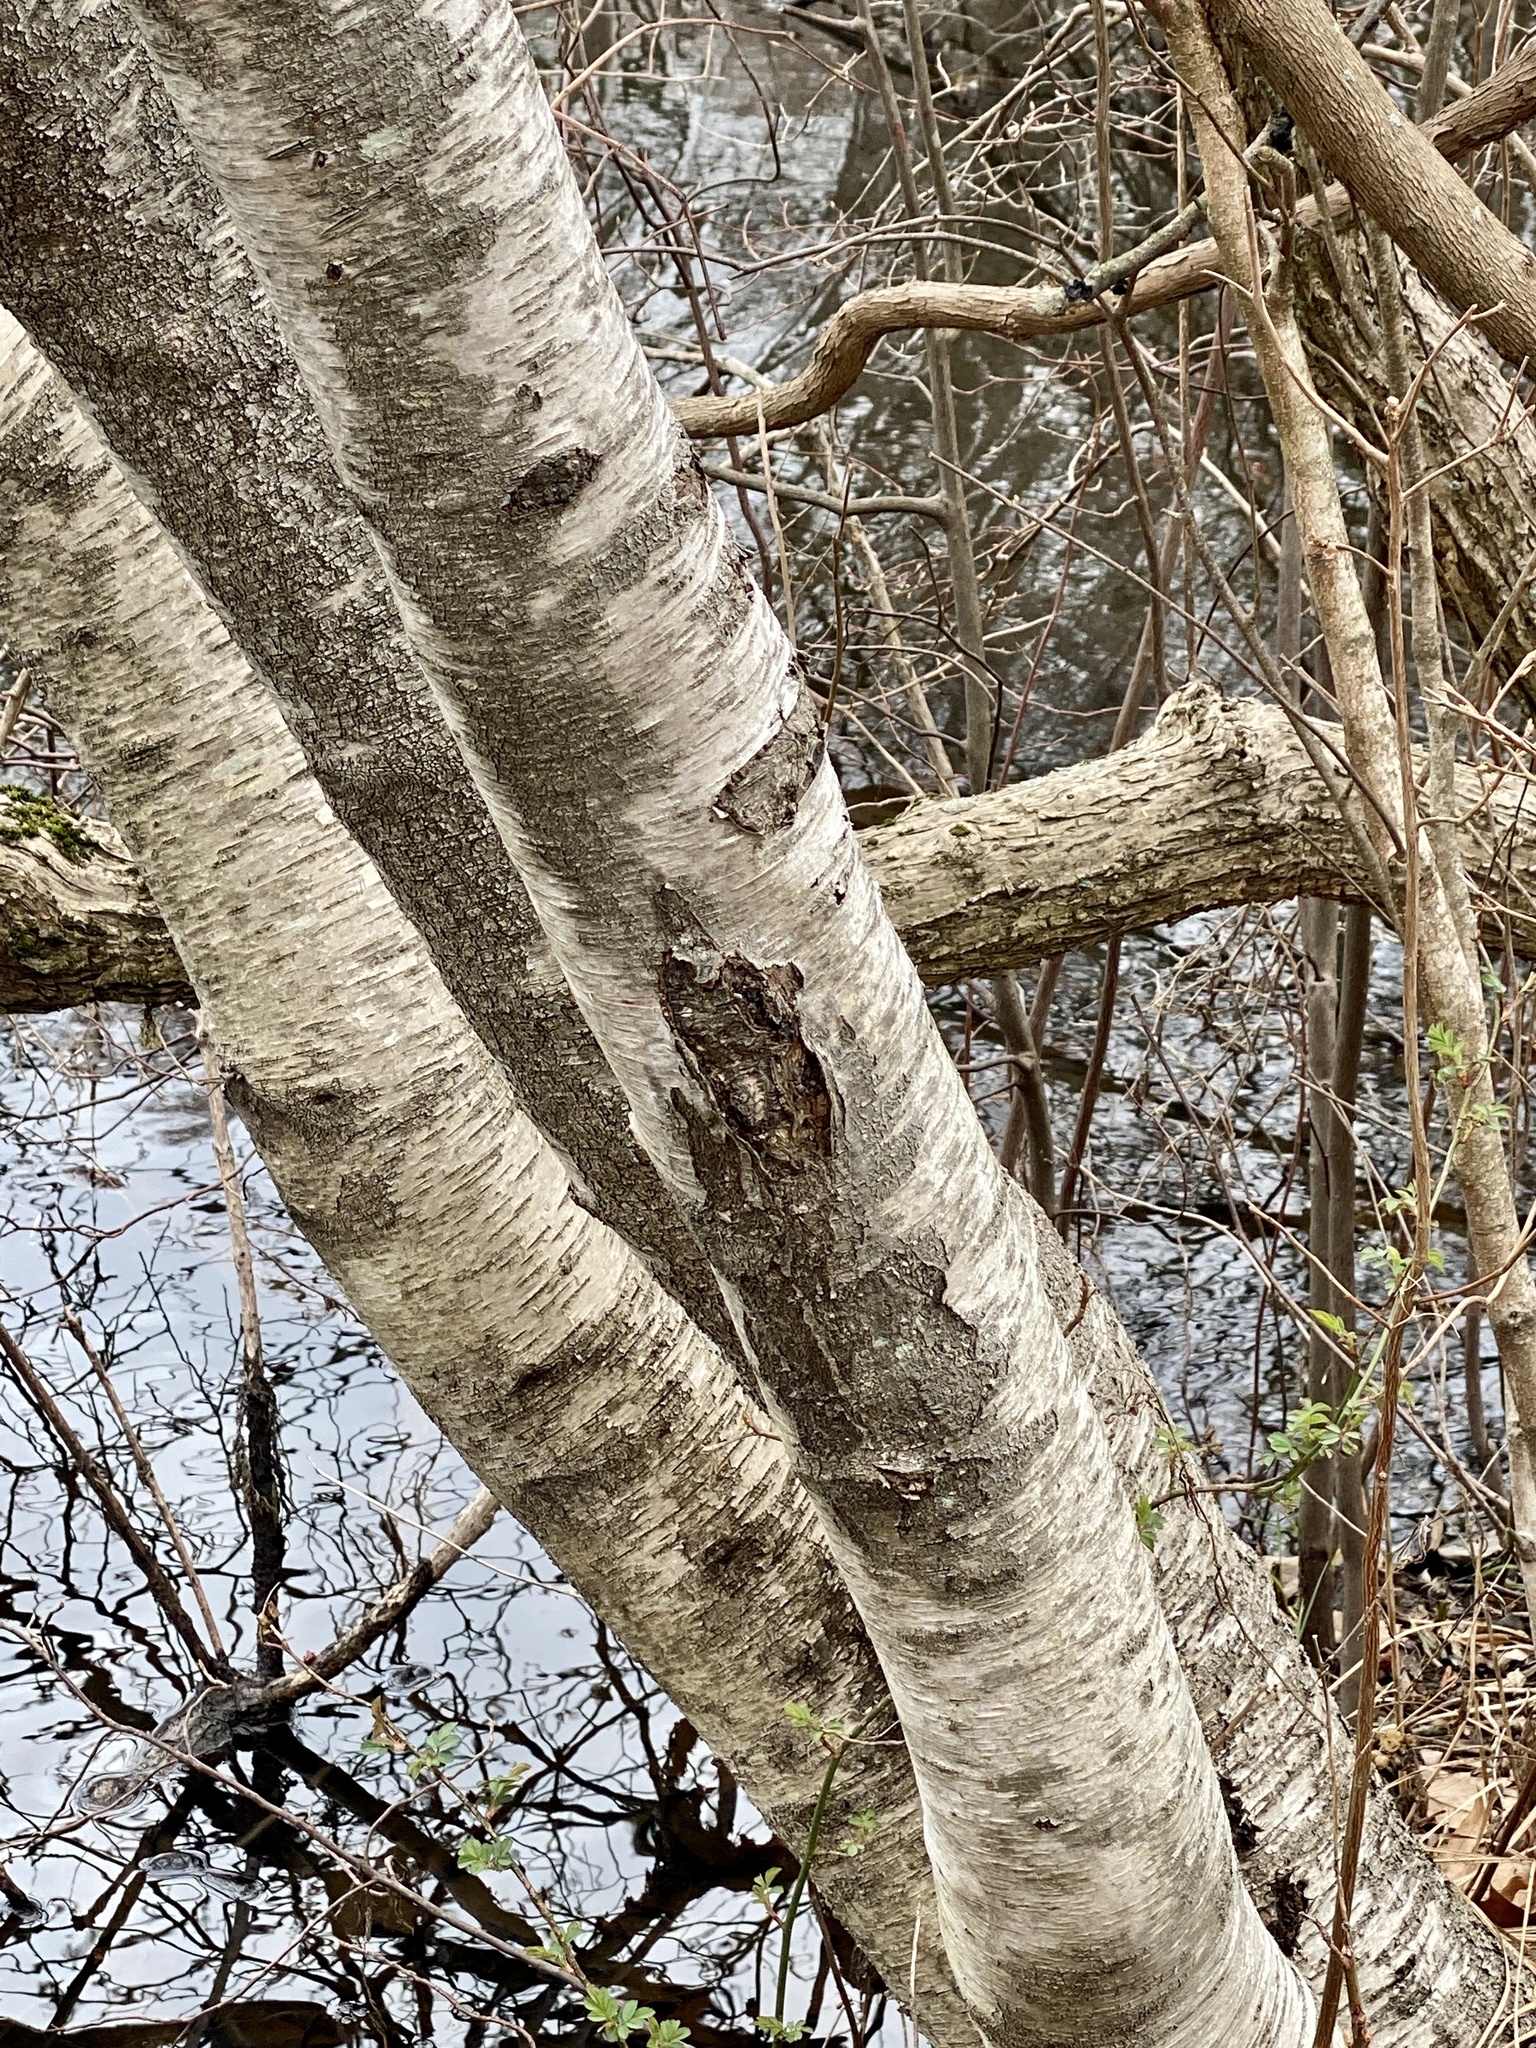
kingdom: Plantae
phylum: Tracheophyta
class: Magnoliopsida
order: Fagales
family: Betulaceae
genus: Betula
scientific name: Betula populifolia
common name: Fire birch
